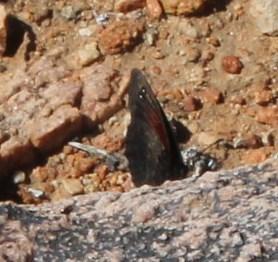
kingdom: Animalia
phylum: Arthropoda
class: Insecta
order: Lepidoptera
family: Nymphalidae
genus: Tarsocera
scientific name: Tarsocera cassus
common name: Spring widow
